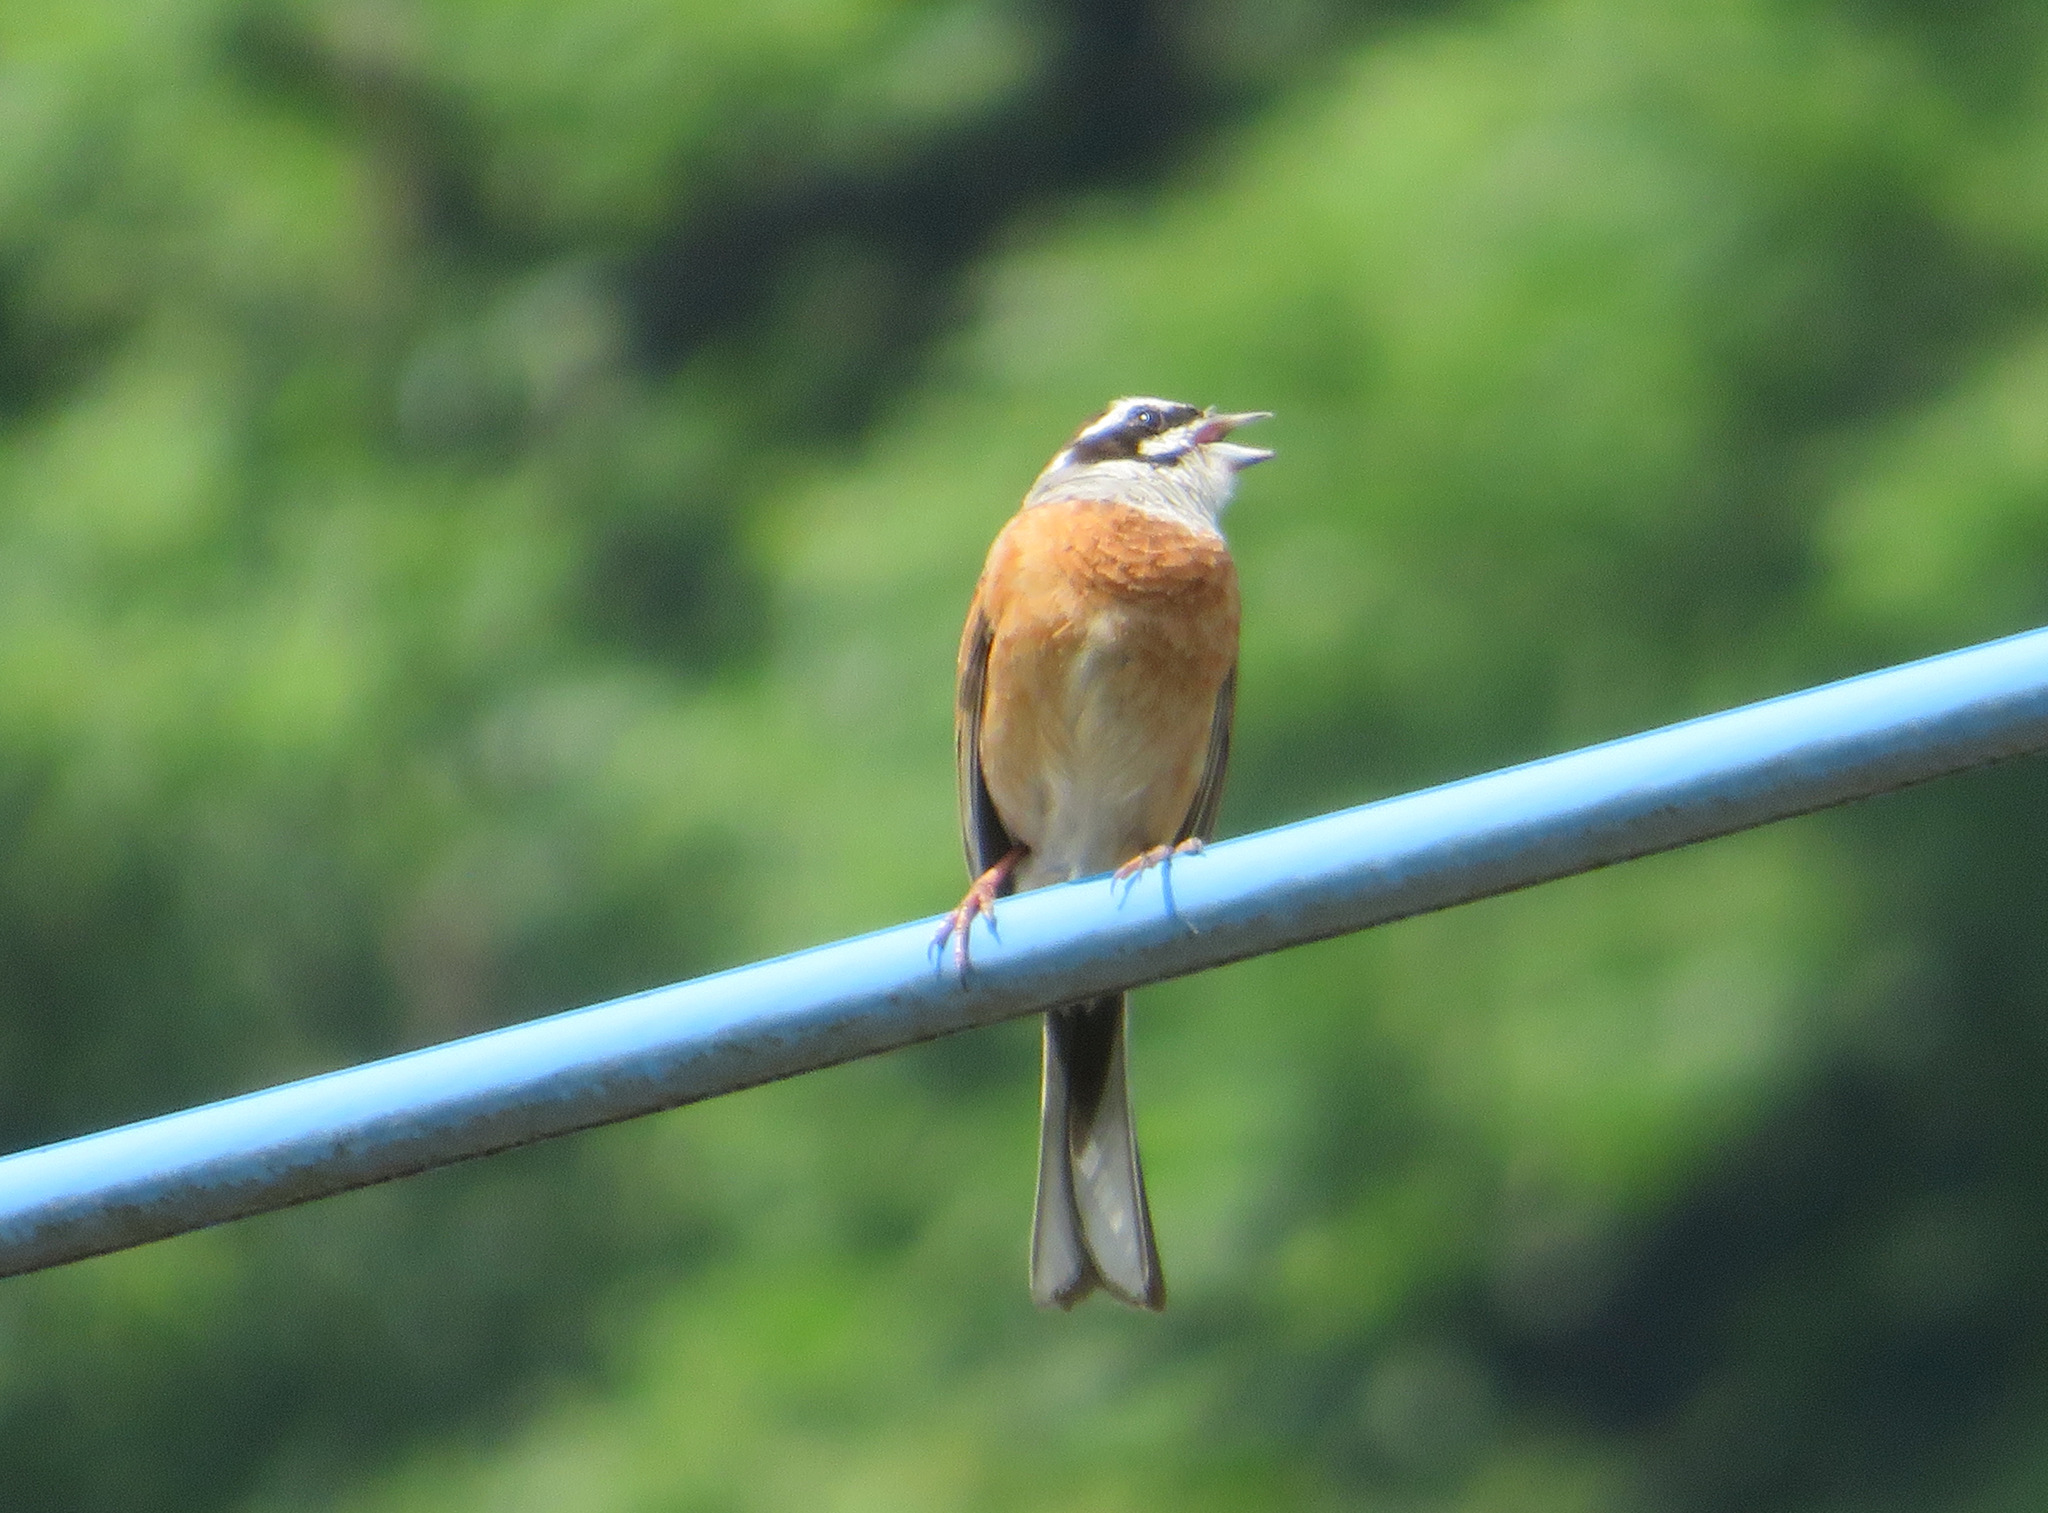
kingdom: Animalia
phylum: Chordata
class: Aves
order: Passeriformes
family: Emberizidae
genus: Emberiza
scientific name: Emberiza cioides
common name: Meadow bunting
